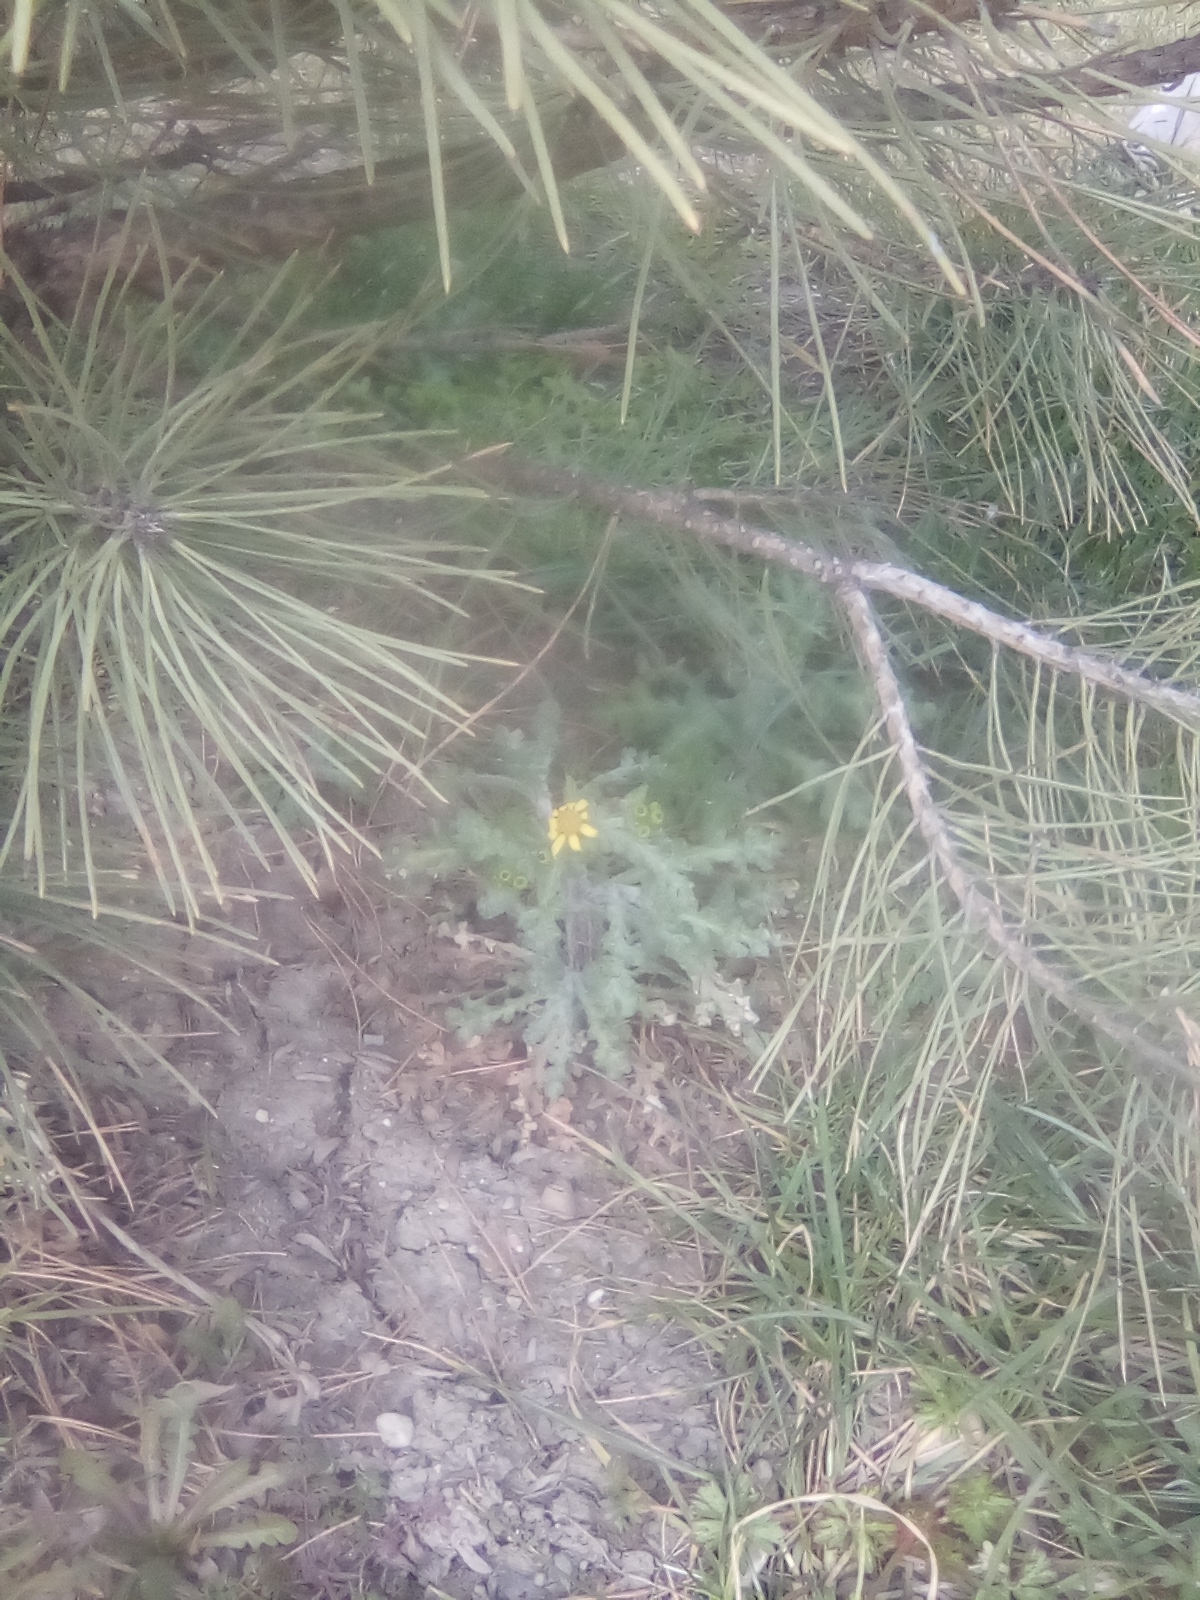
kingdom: Plantae
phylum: Tracheophyta
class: Magnoliopsida
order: Asterales
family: Asteraceae
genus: Senecio
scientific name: Senecio vernalis
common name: Eastern groundsel
